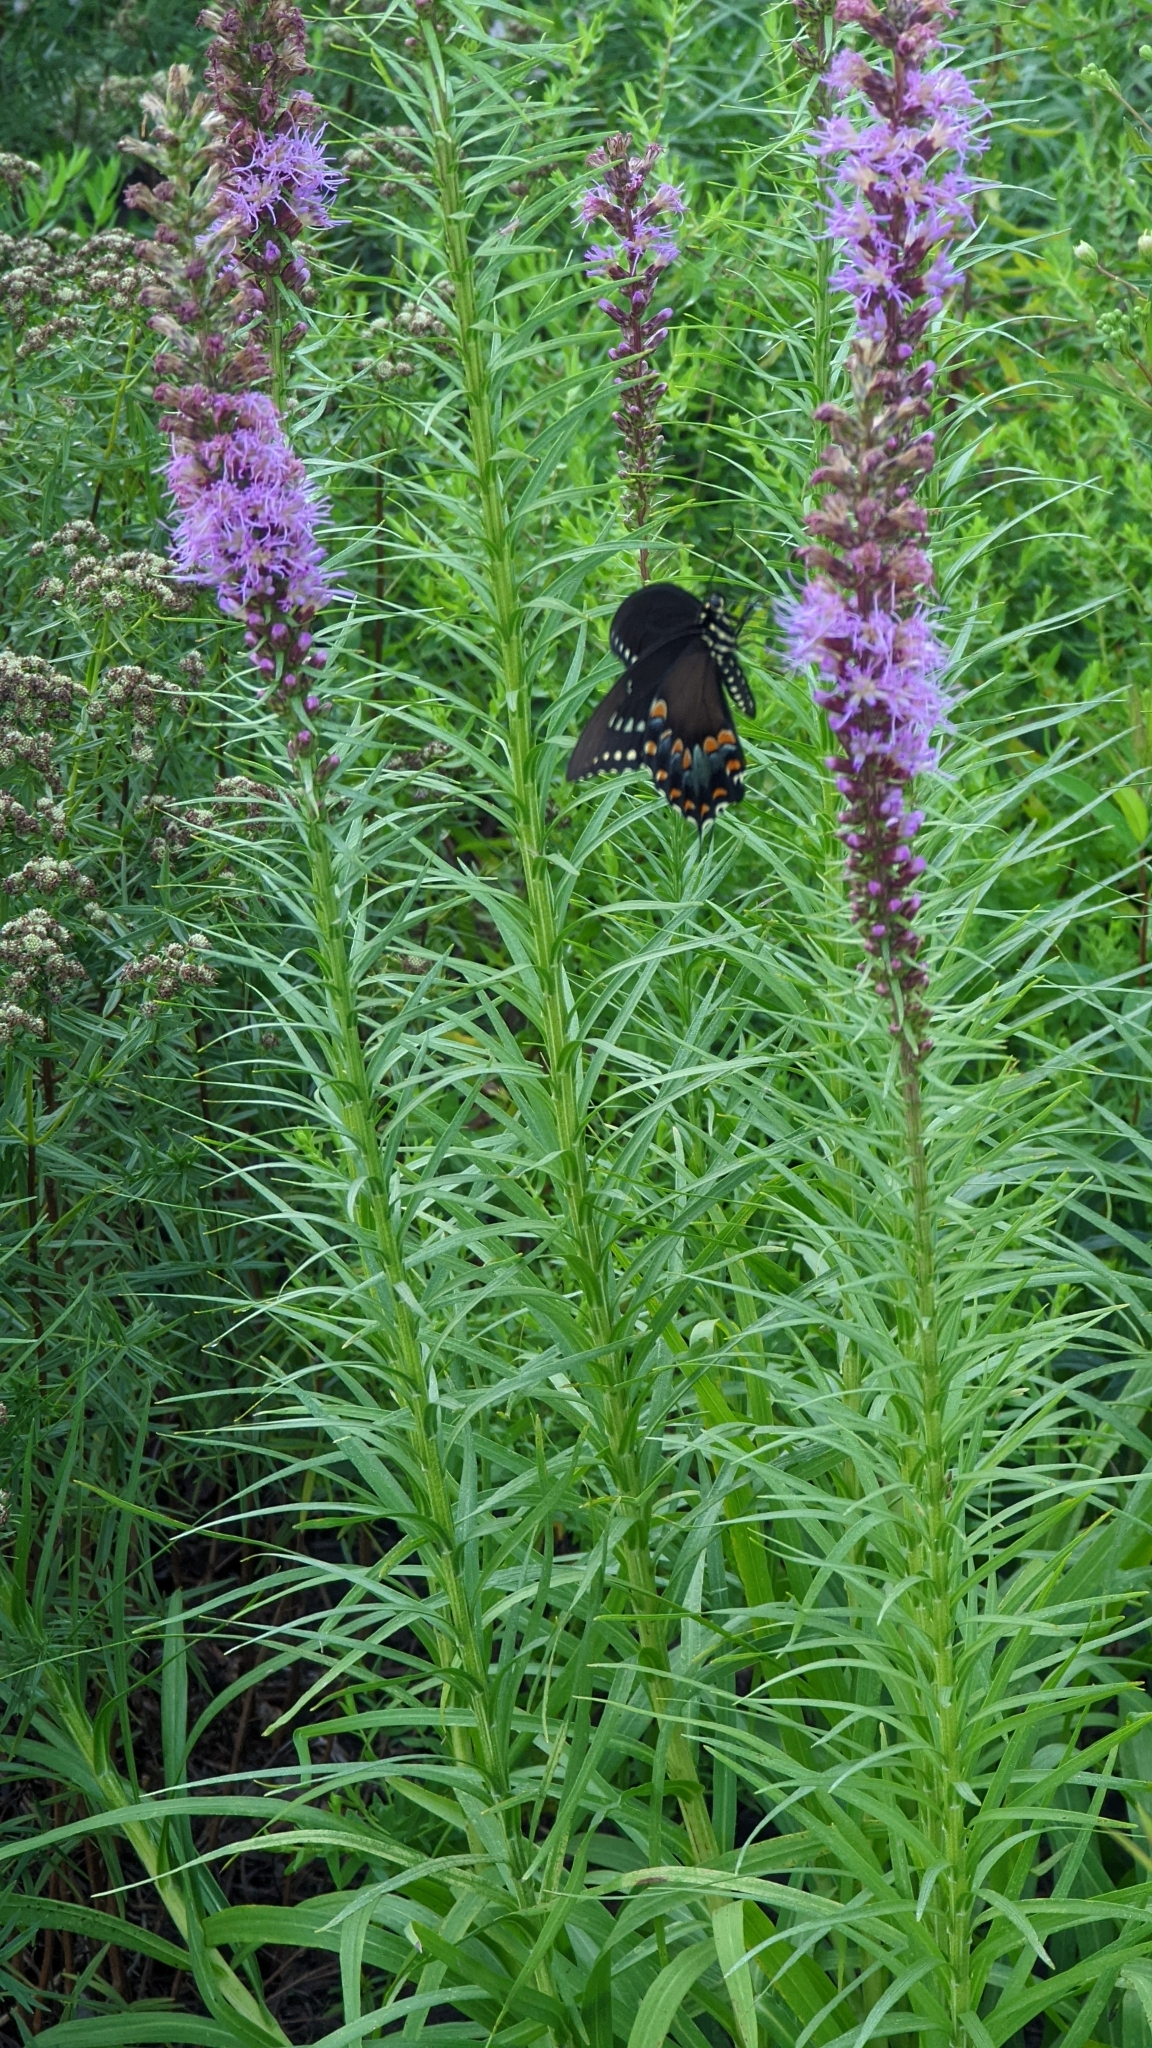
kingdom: Animalia
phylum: Arthropoda
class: Insecta
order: Lepidoptera
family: Papilionidae
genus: Papilio
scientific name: Papilio troilus
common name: Spicebush swallowtail
